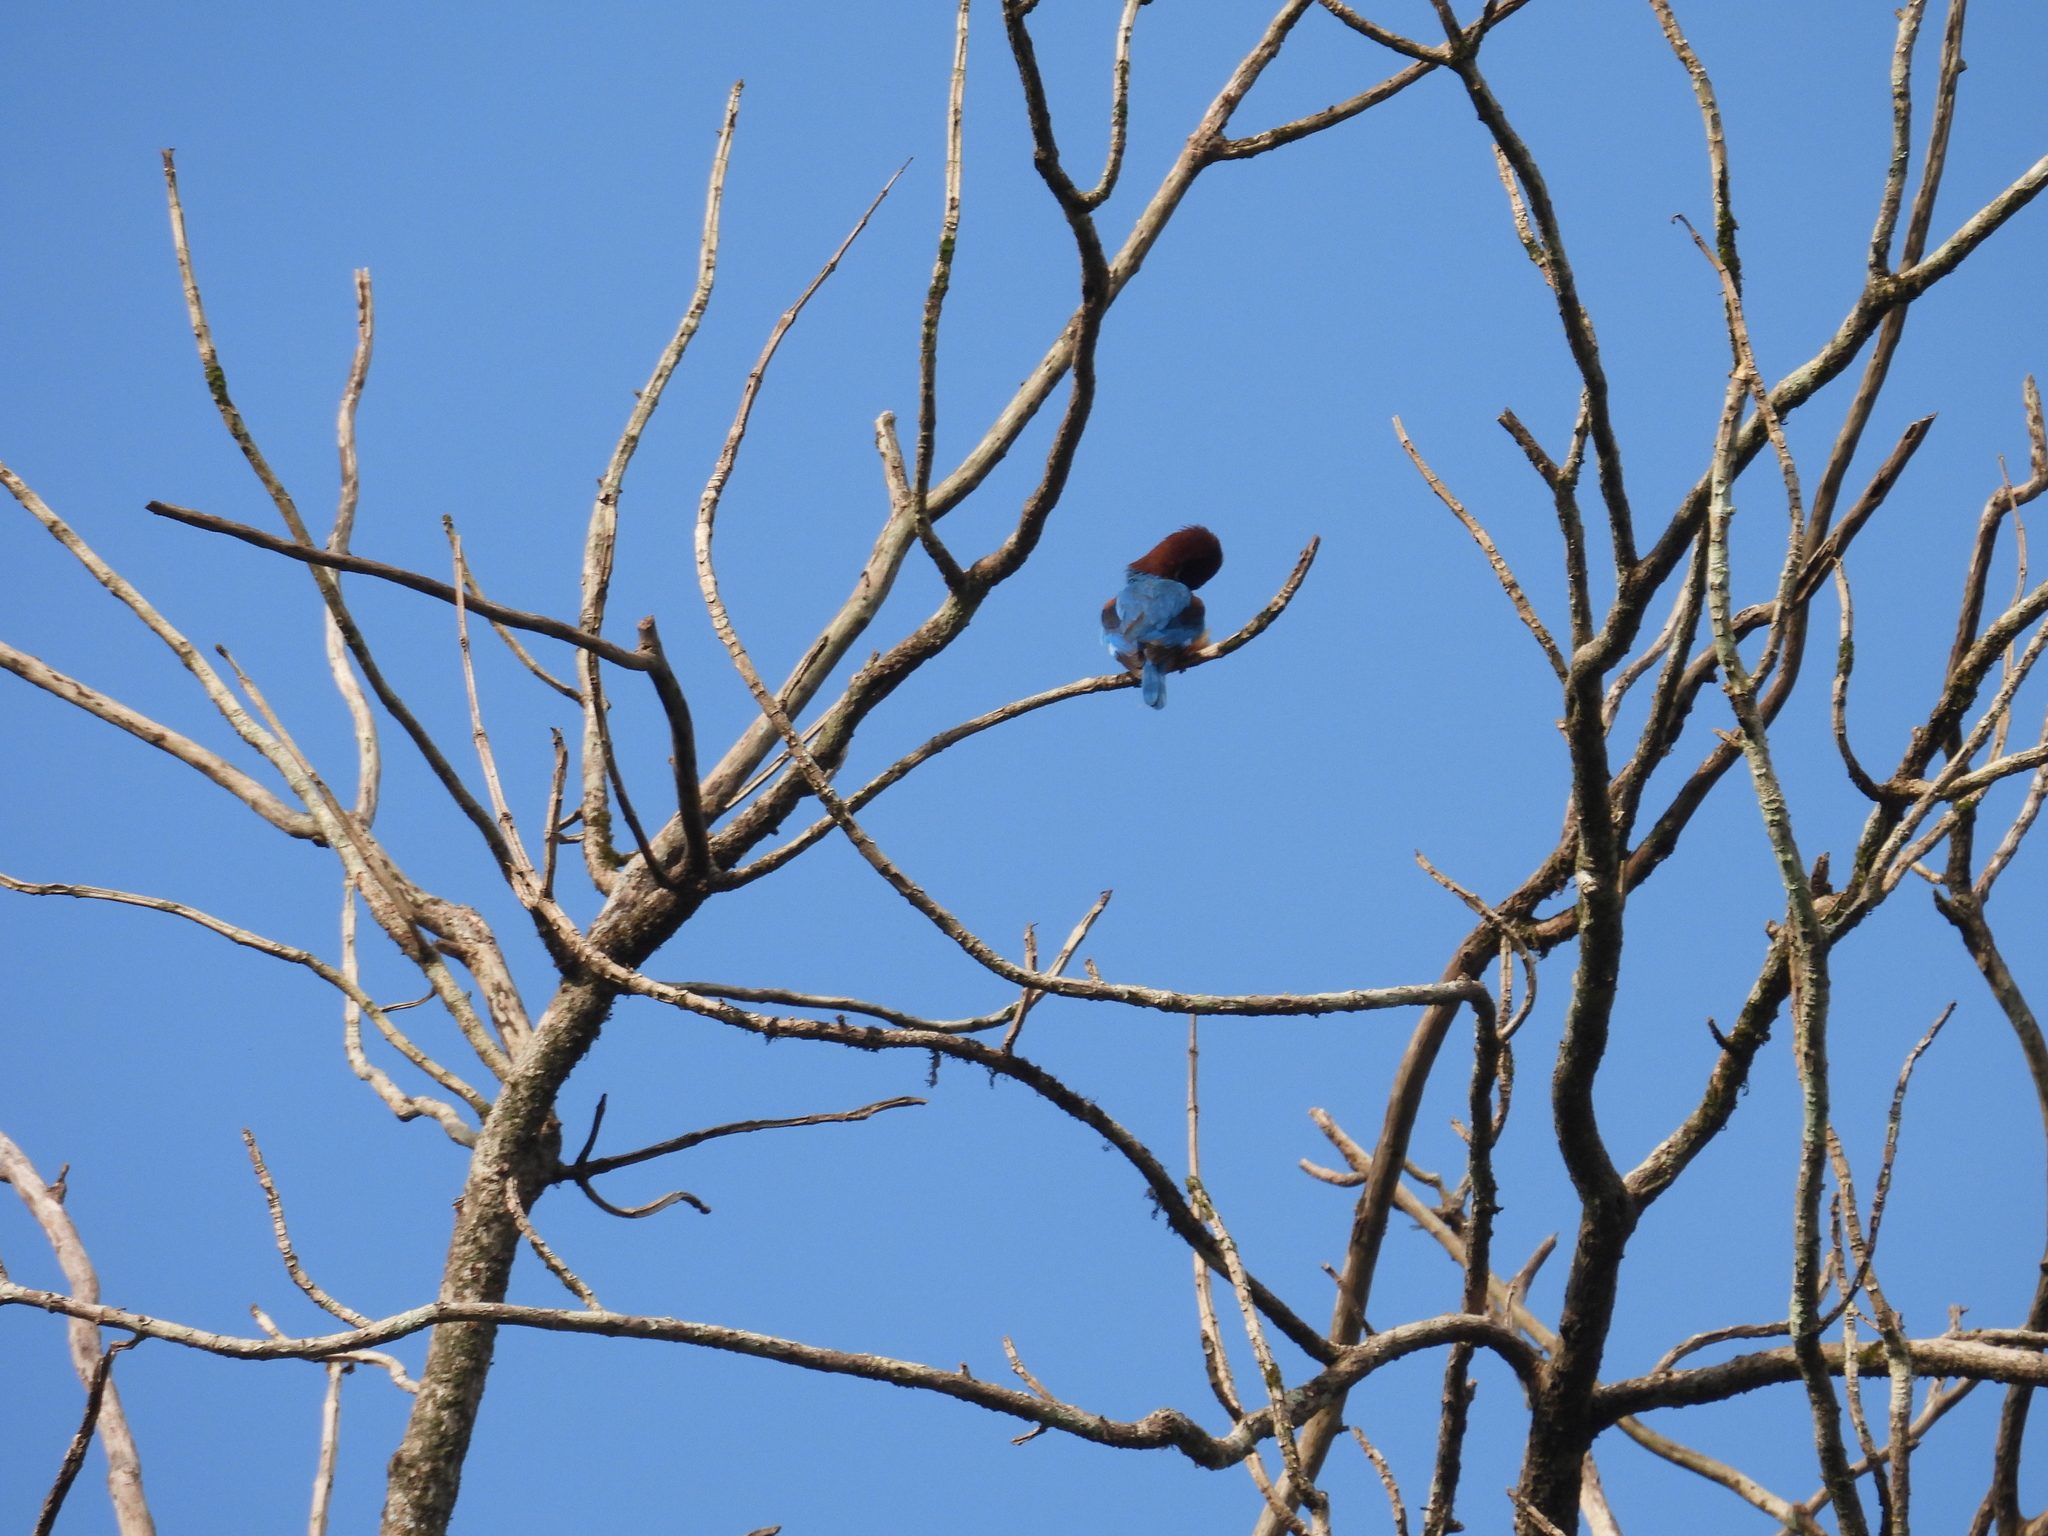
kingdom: Animalia
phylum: Chordata
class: Aves
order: Coraciiformes
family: Alcedinidae
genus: Halcyon
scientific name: Halcyon smyrnensis
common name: White-throated kingfisher
